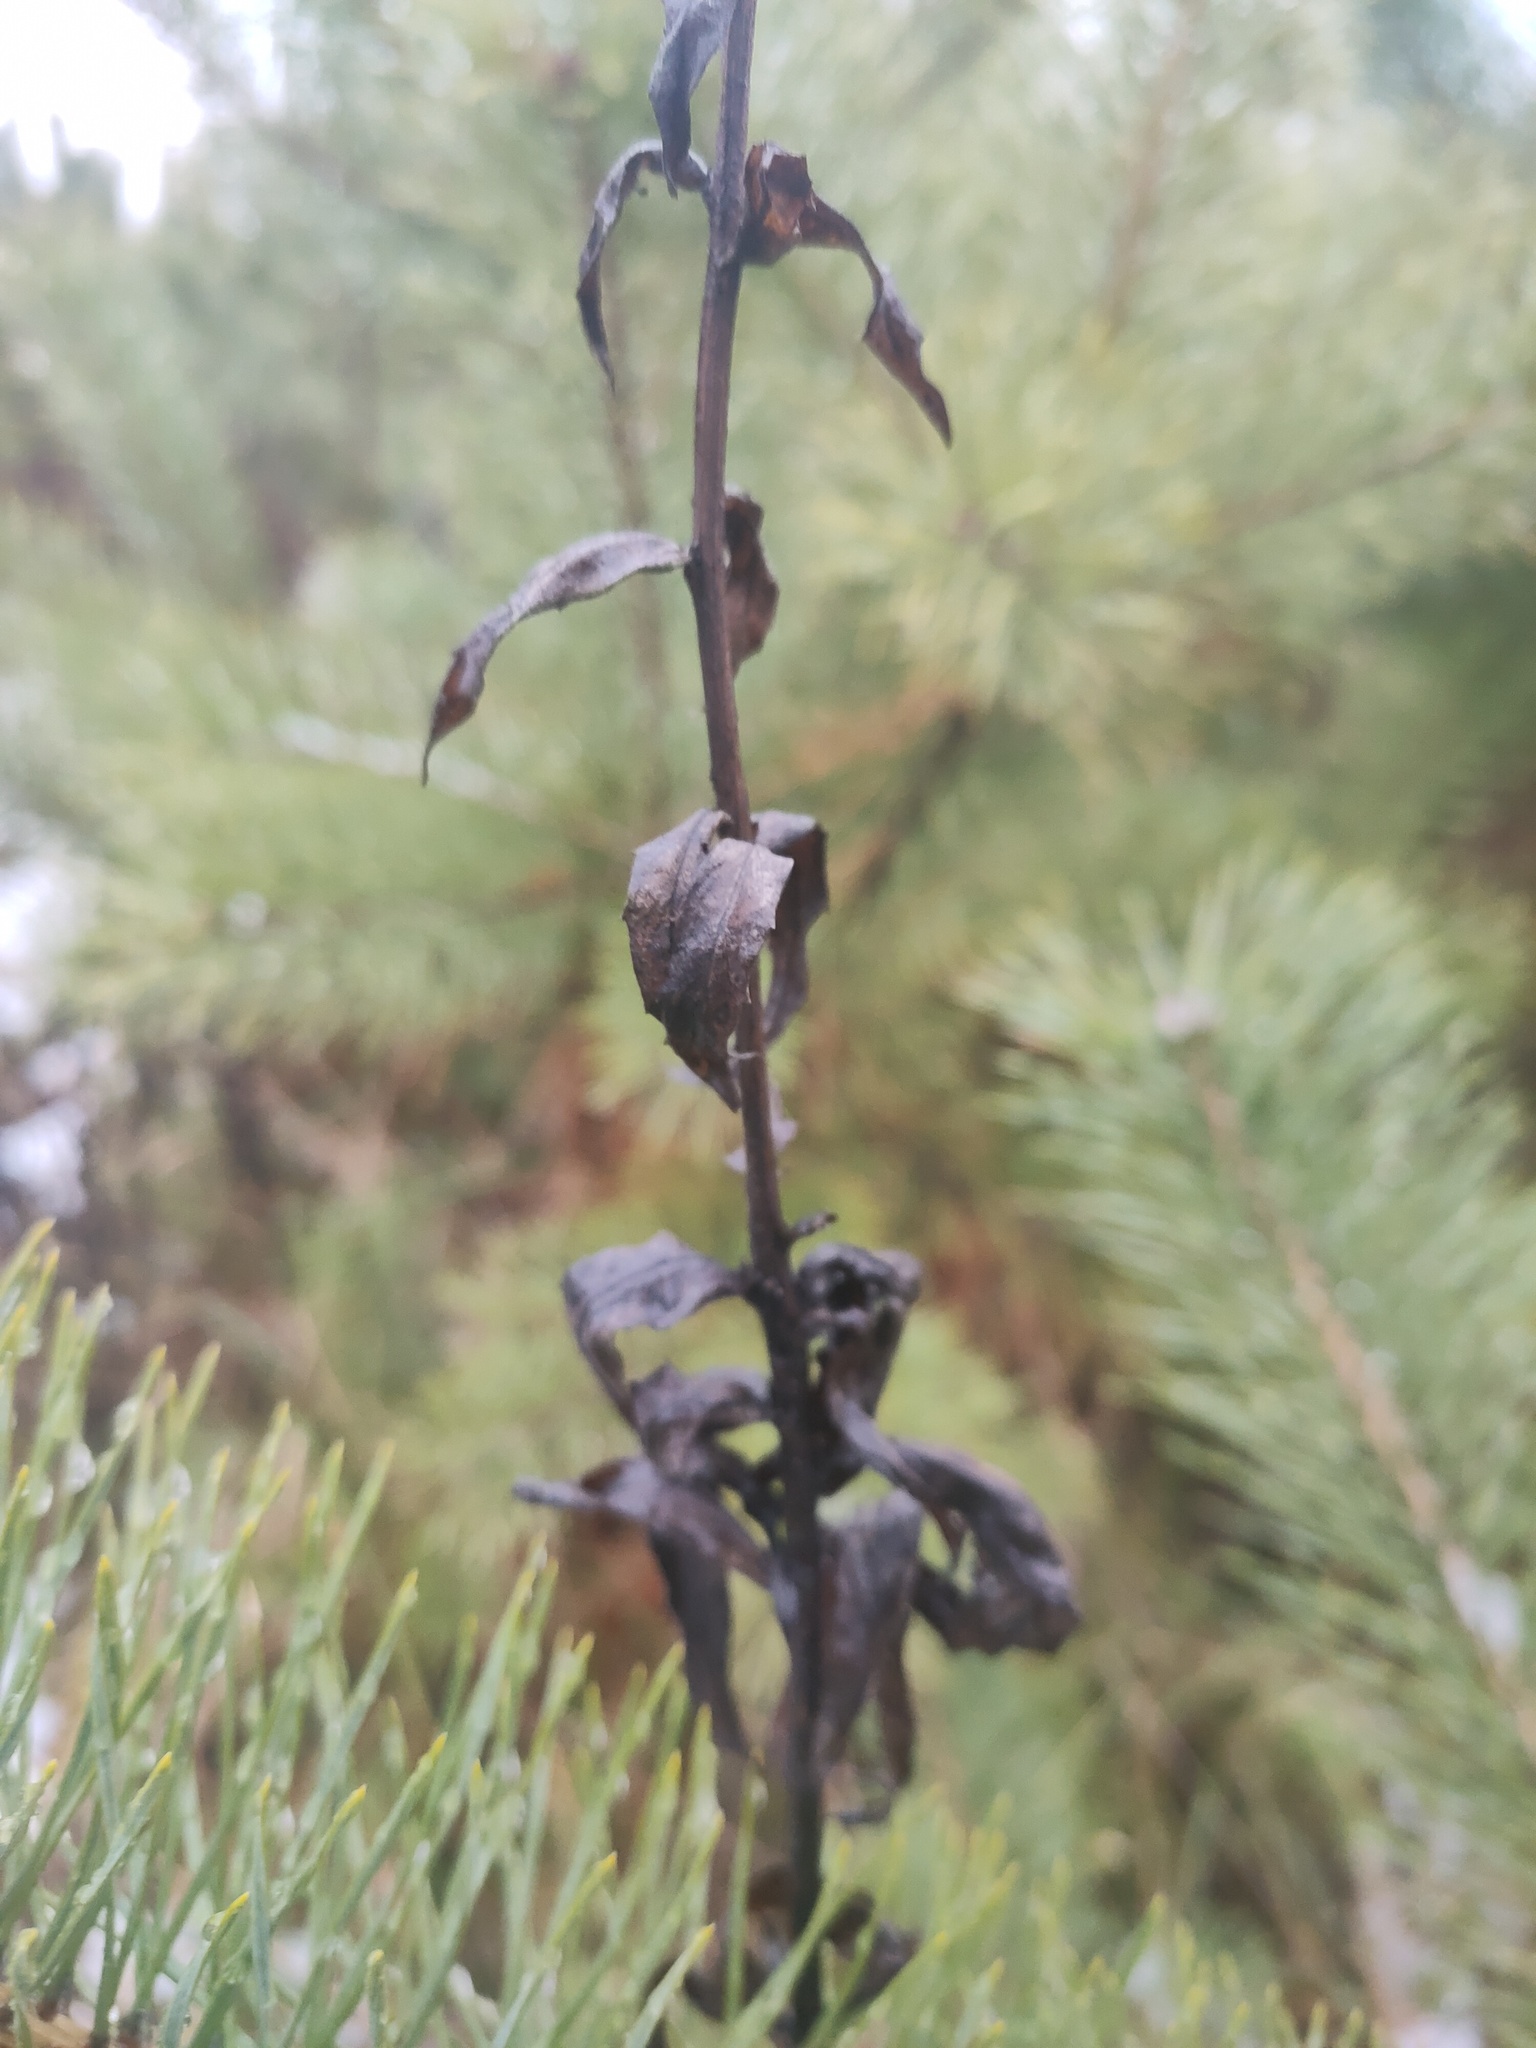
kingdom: Plantae
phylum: Tracheophyta
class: Magnoliopsida
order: Asterales
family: Asteraceae
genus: Hieracium
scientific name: Hieracium umbellatum
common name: Northern hawkweed
